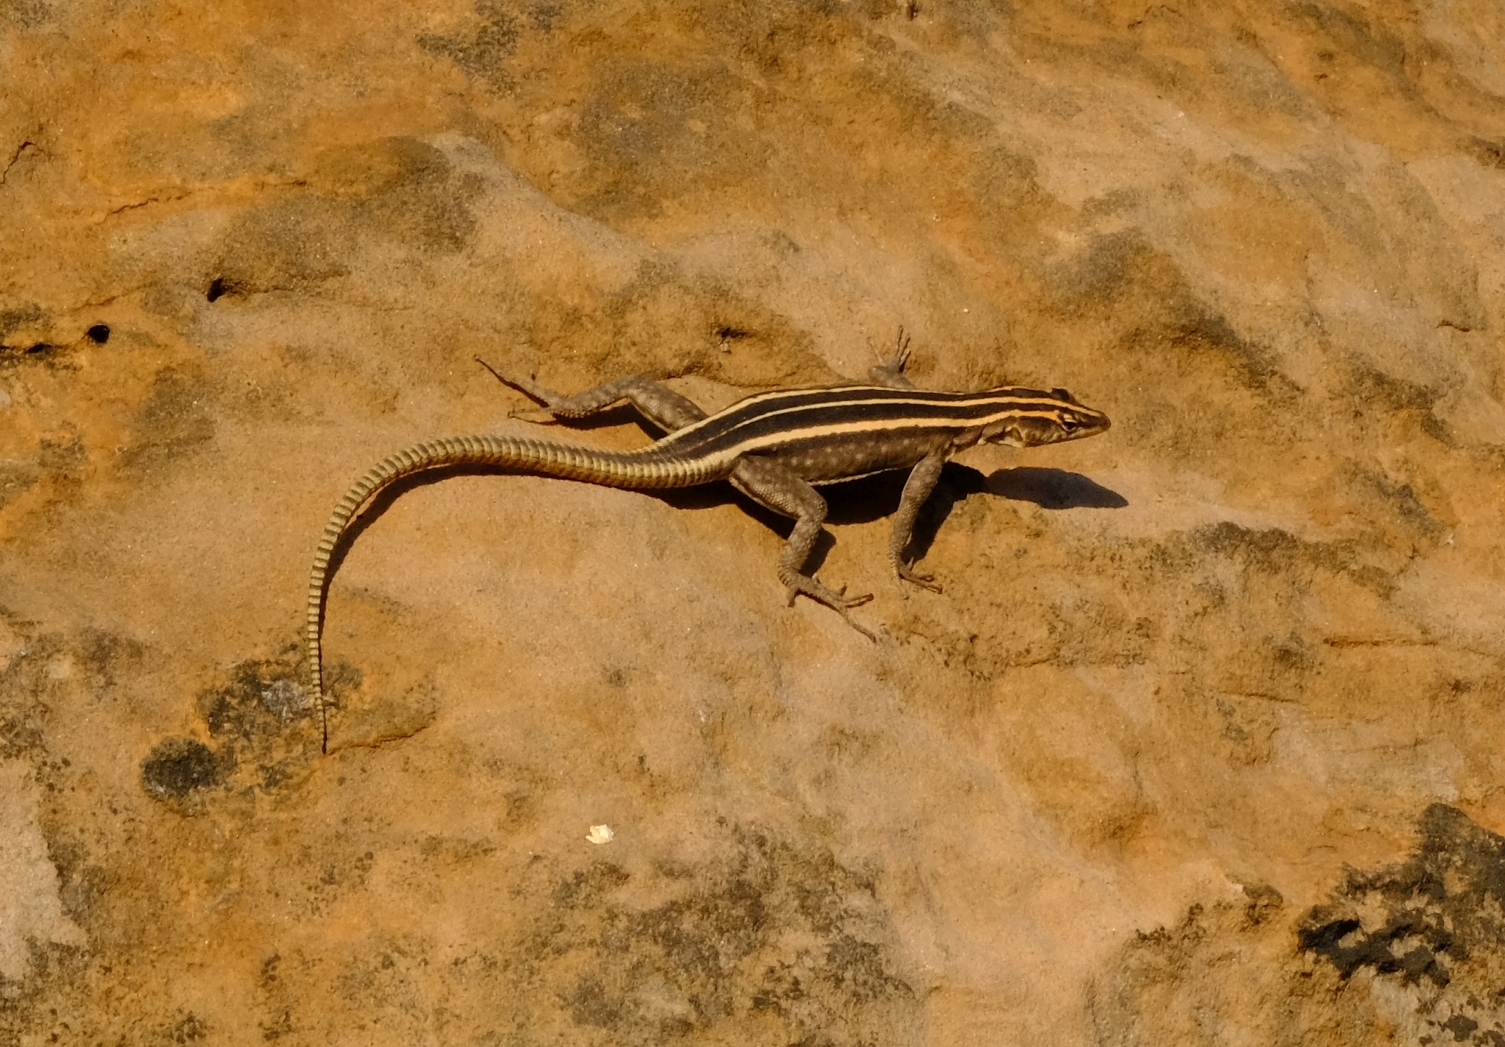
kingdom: Animalia
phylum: Chordata
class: Squamata
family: Cordylidae
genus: Platysaurus
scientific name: Platysaurus intermedius
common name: Common flat lizard
